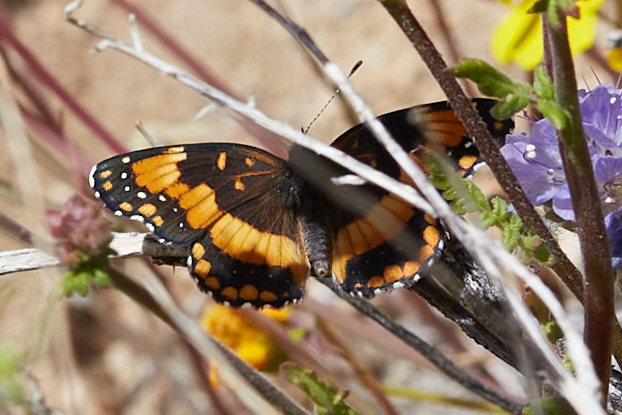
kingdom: Animalia
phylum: Arthropoda
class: Insecta
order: Lepidoptera
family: Nymphalidae
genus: Chlosyne
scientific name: Chlosyne californica
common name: California patch
